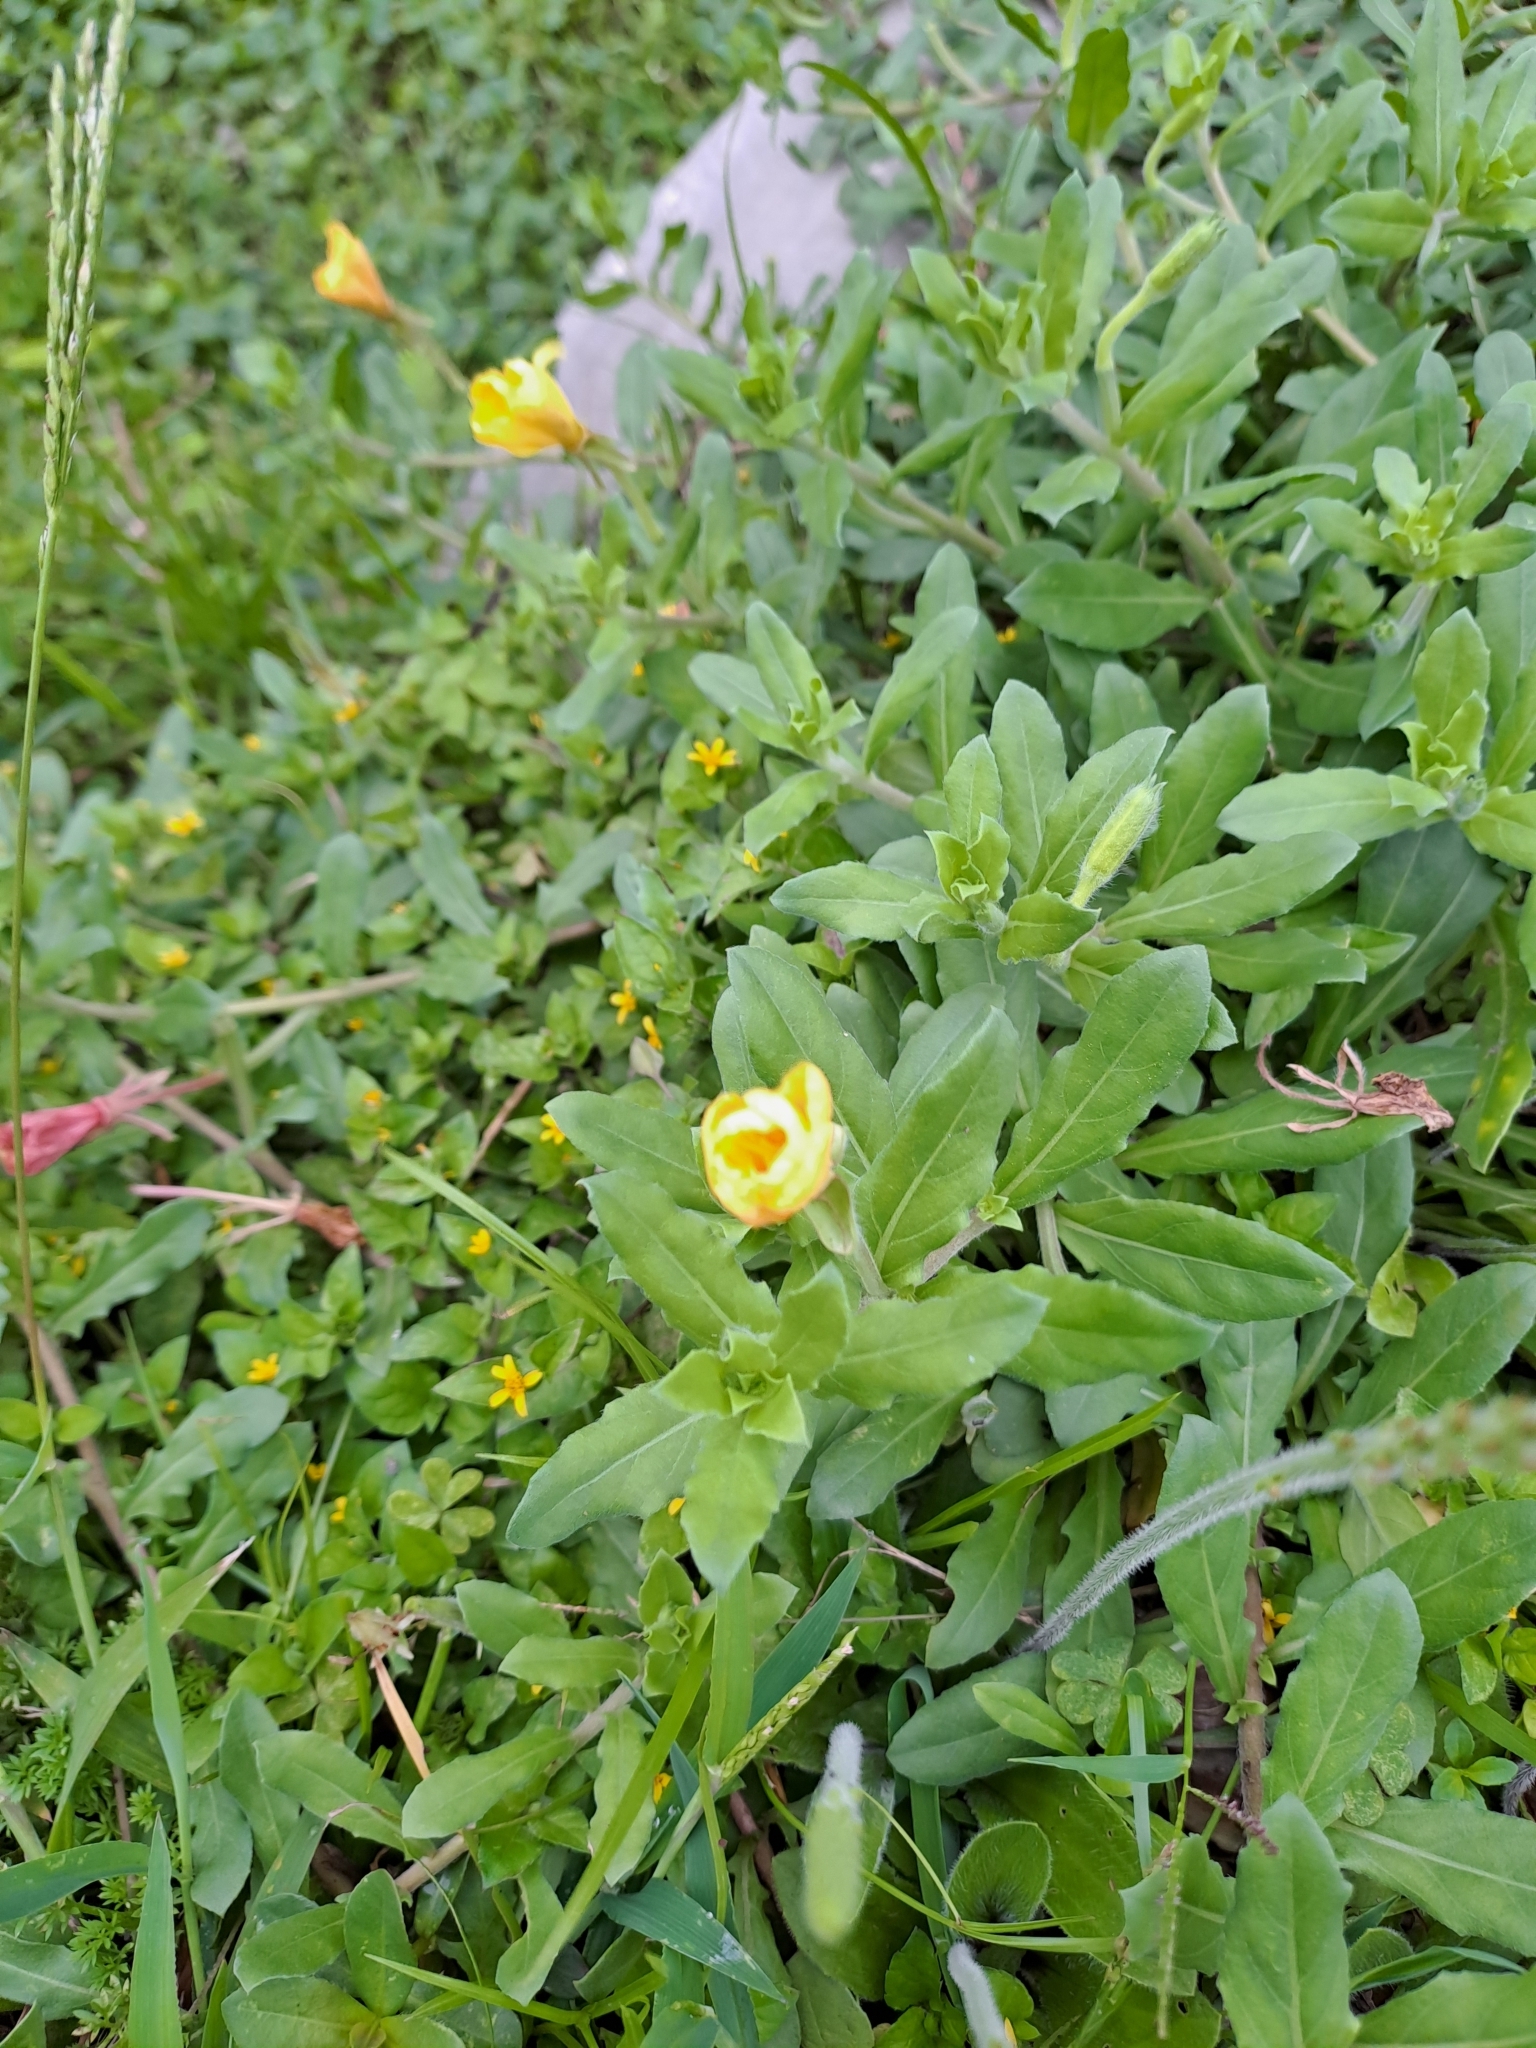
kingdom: Plantae
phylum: Tracheophyta
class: Magnoliopsida
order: Myrtales
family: Onagraceae
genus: Oenothera
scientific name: Oenothera laciniata
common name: Cut-leaved evening-primrose
